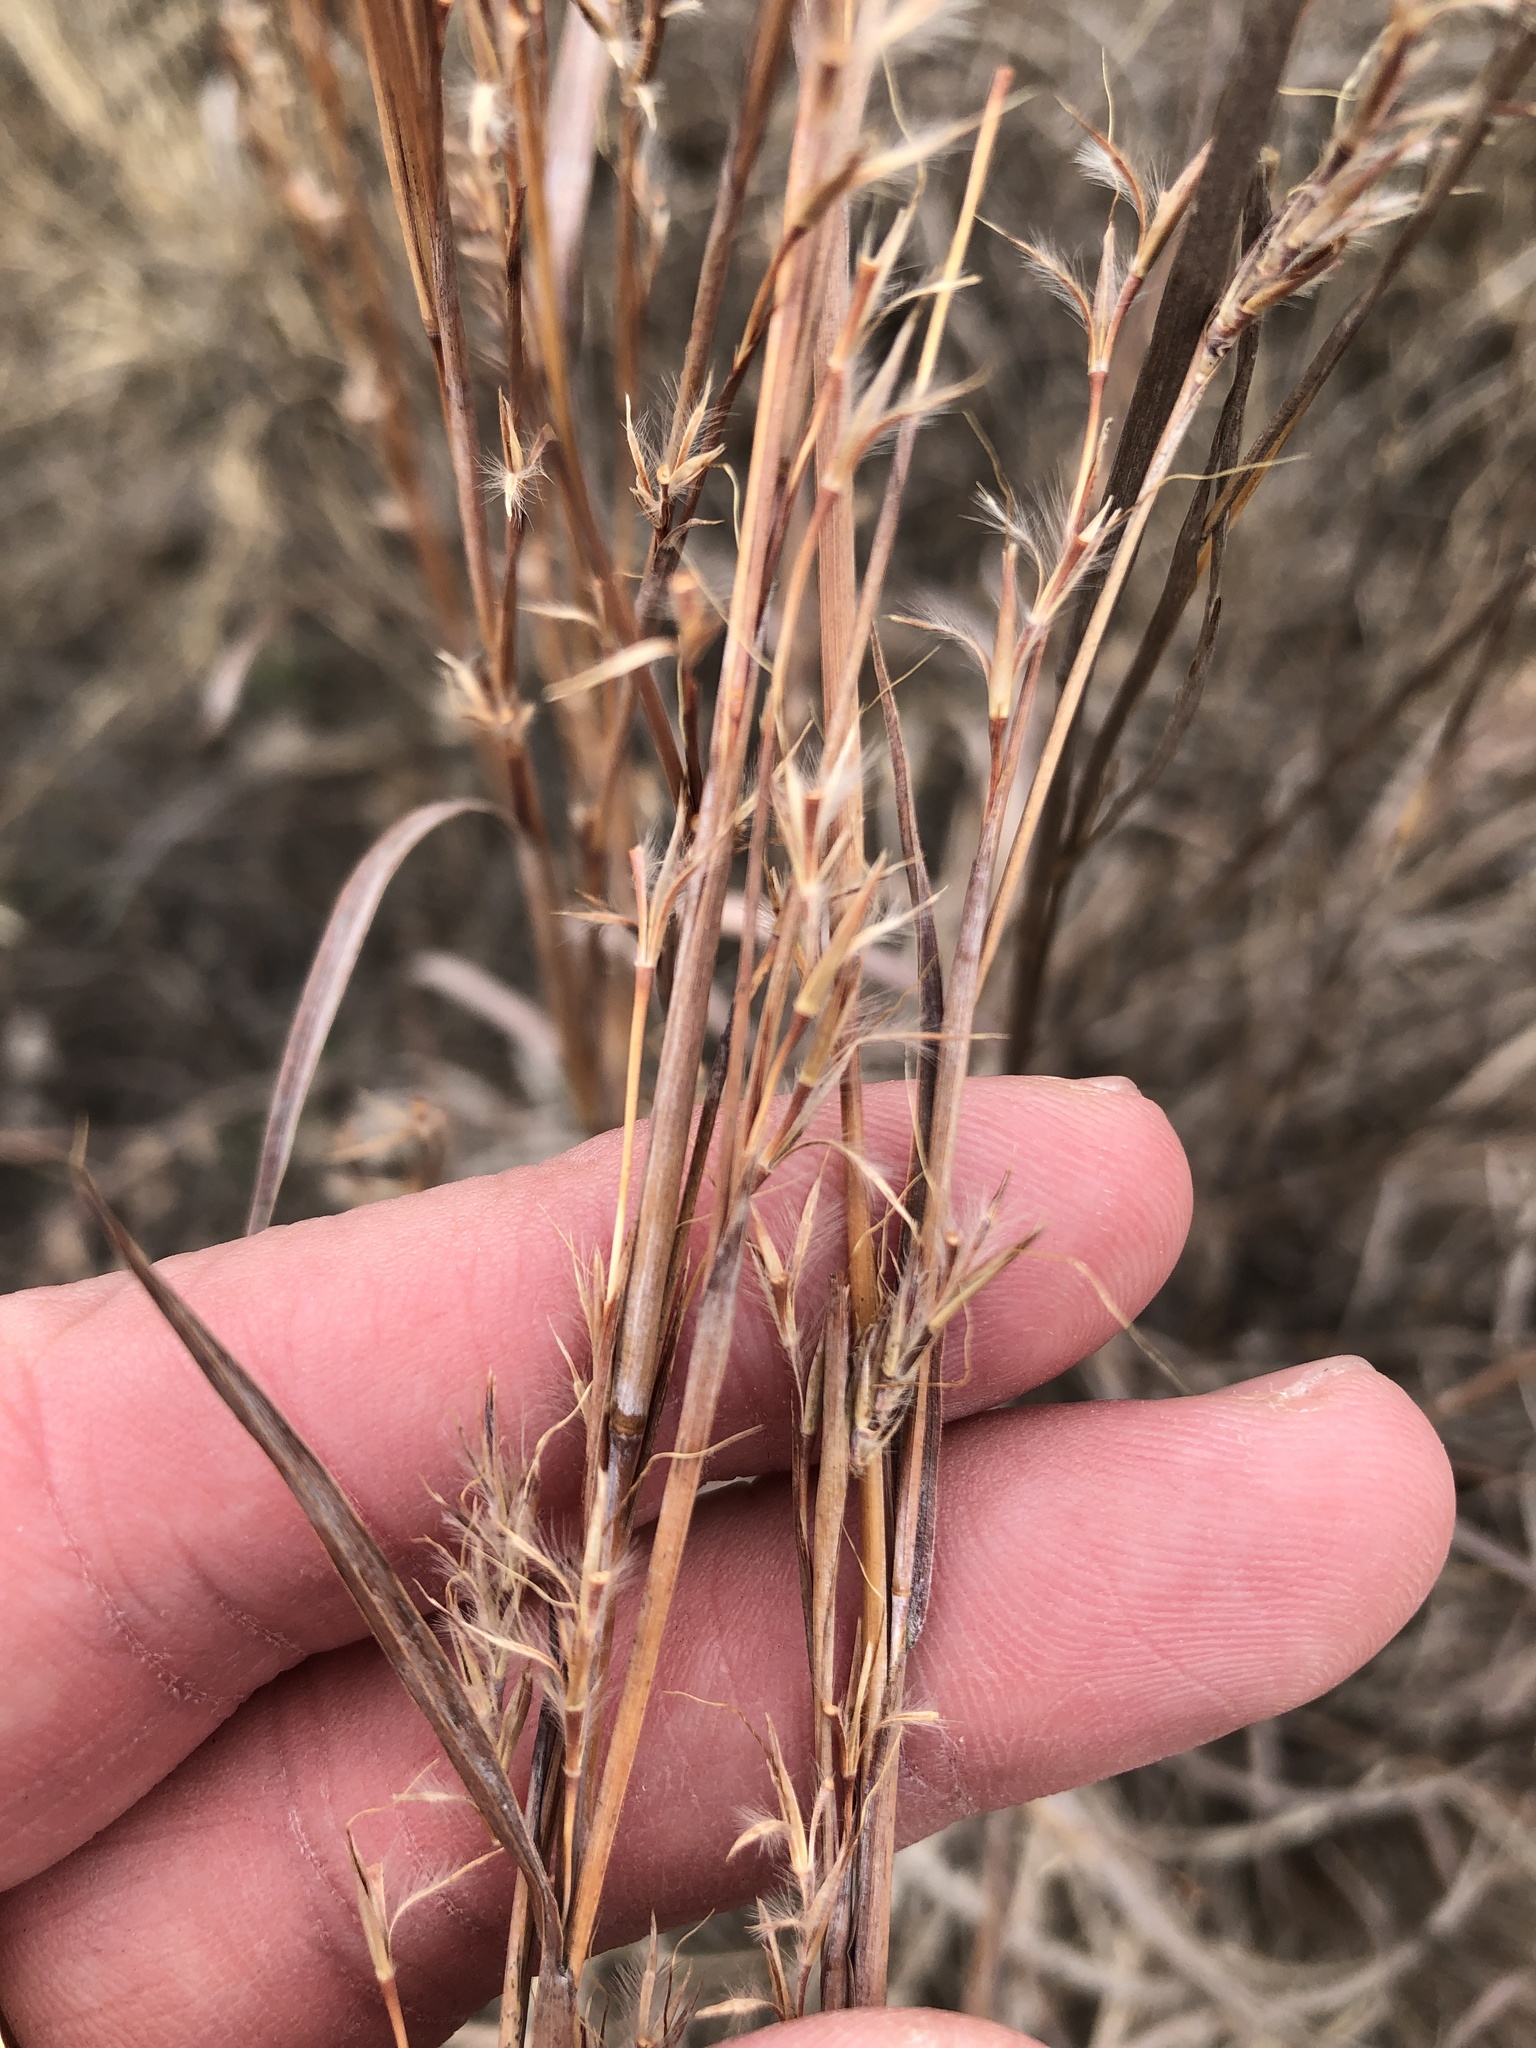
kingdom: Plantae
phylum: Tracheophyta
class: Liliopsida
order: Poales
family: Poaceae
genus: Schizachyrium
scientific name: Schizachyrium scoparium
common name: Little bluestem
